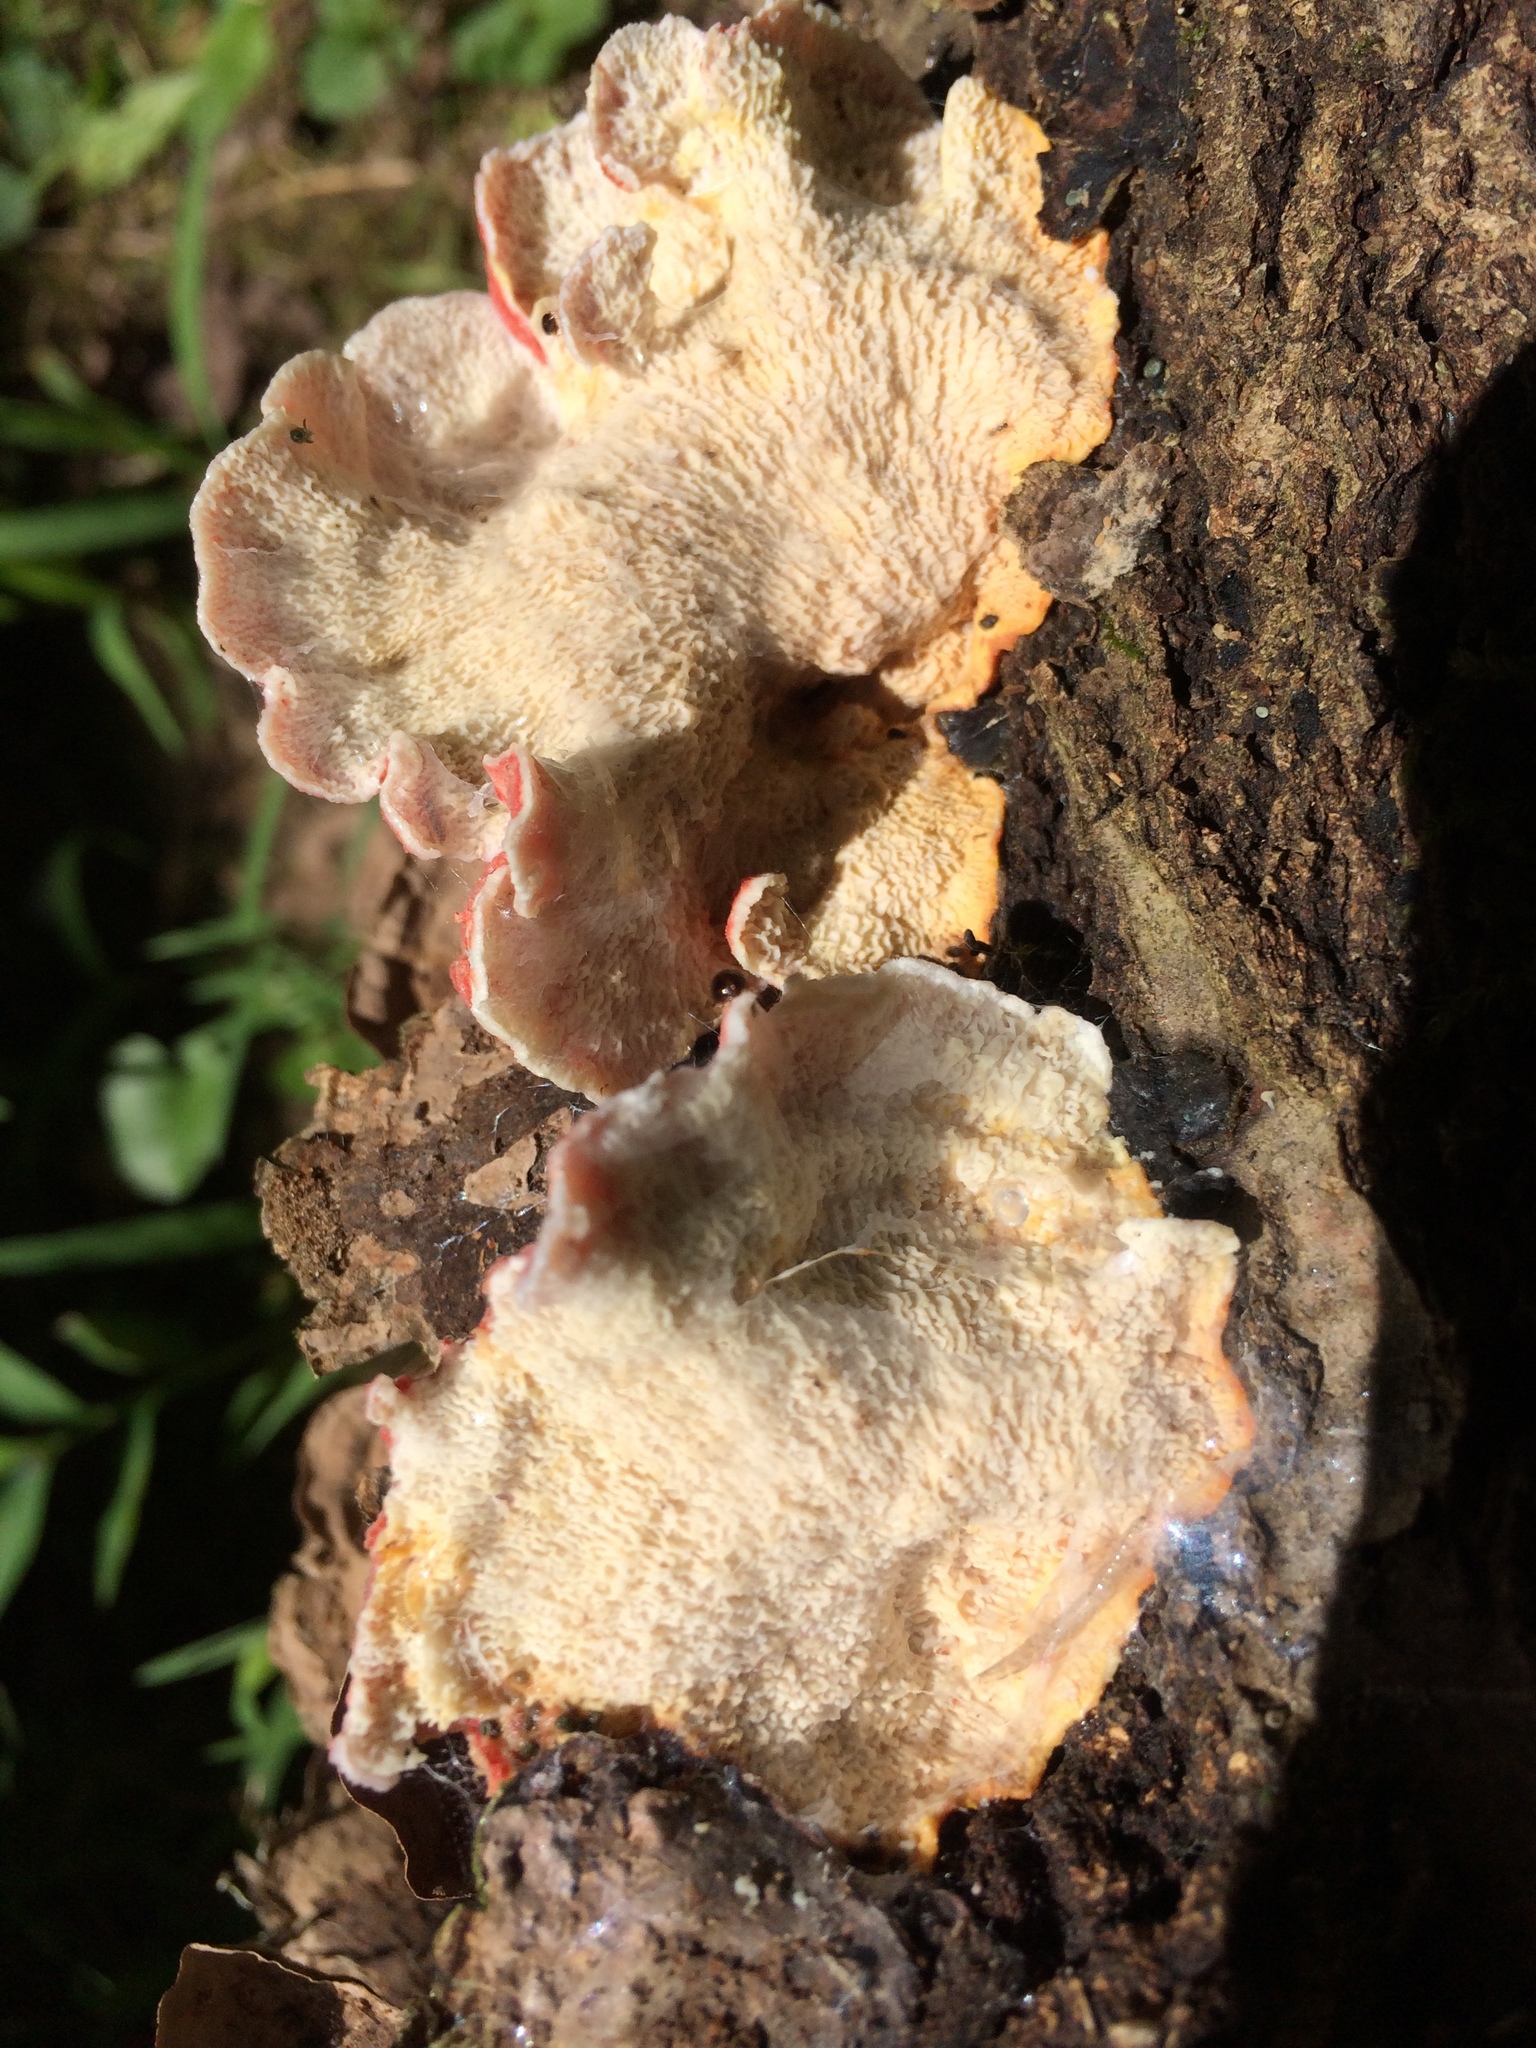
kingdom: Fungi
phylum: Basidiomycota
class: Agaricomycetes
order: Polyporales
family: Irpicaceae
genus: Byssomerulius
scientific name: Byssomerulius incarnatus
